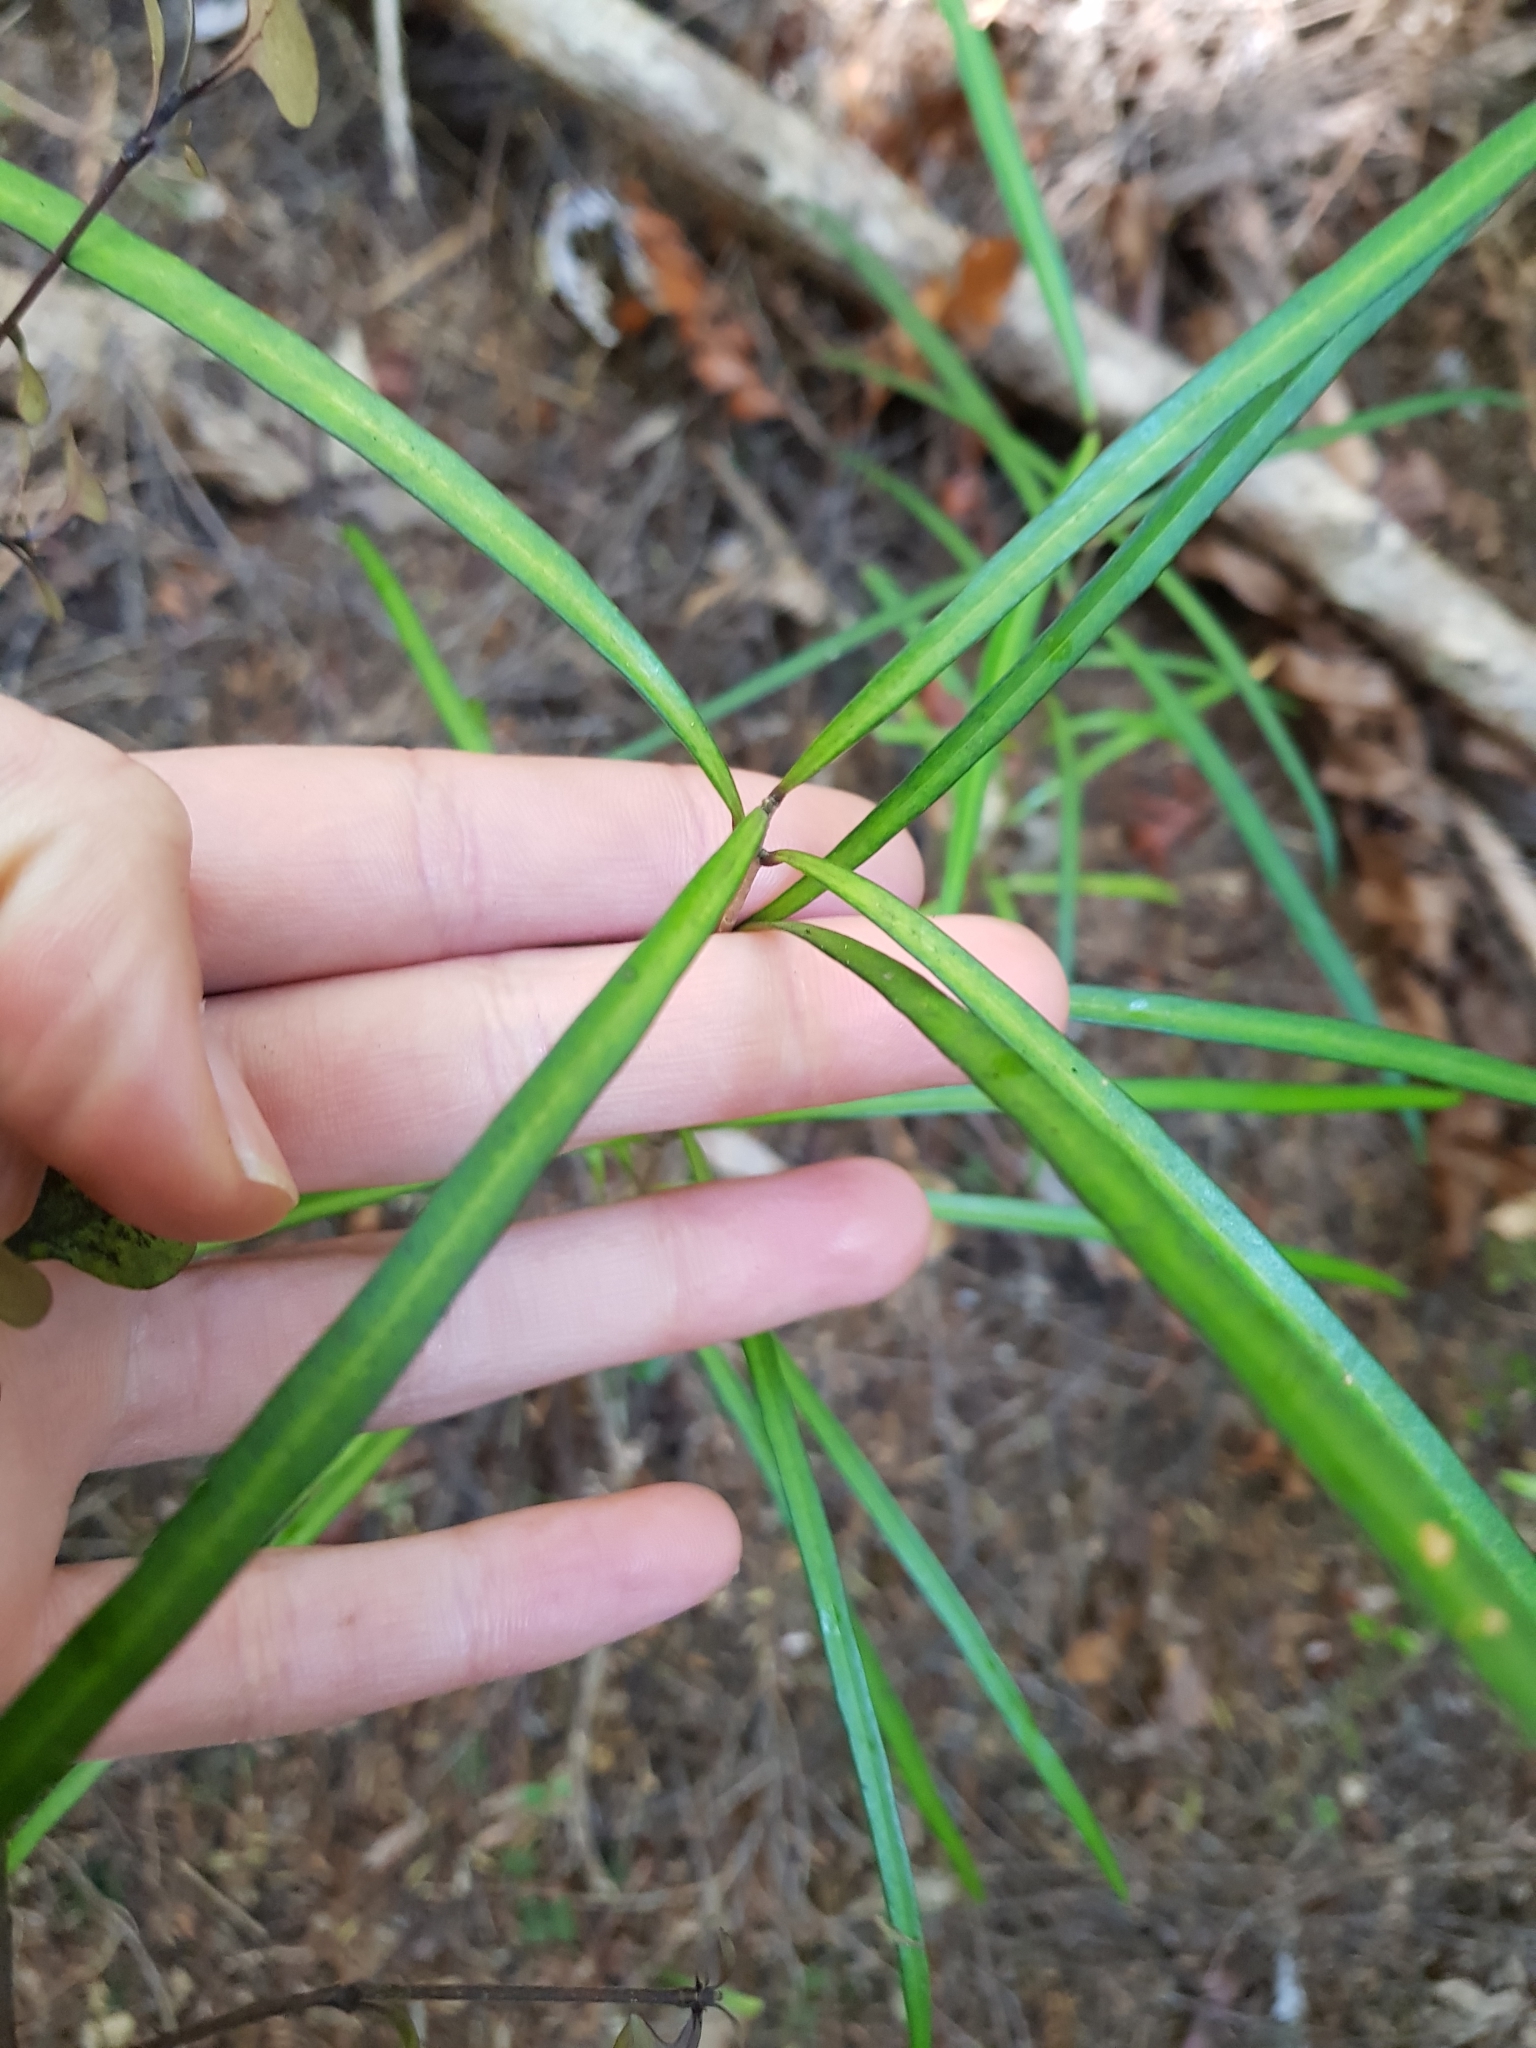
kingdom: Plantae
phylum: Tracheophyta
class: Magnoliopsida
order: Lamiales
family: Oleaceae
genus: Nestegis
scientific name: Nestegis lanceolata
